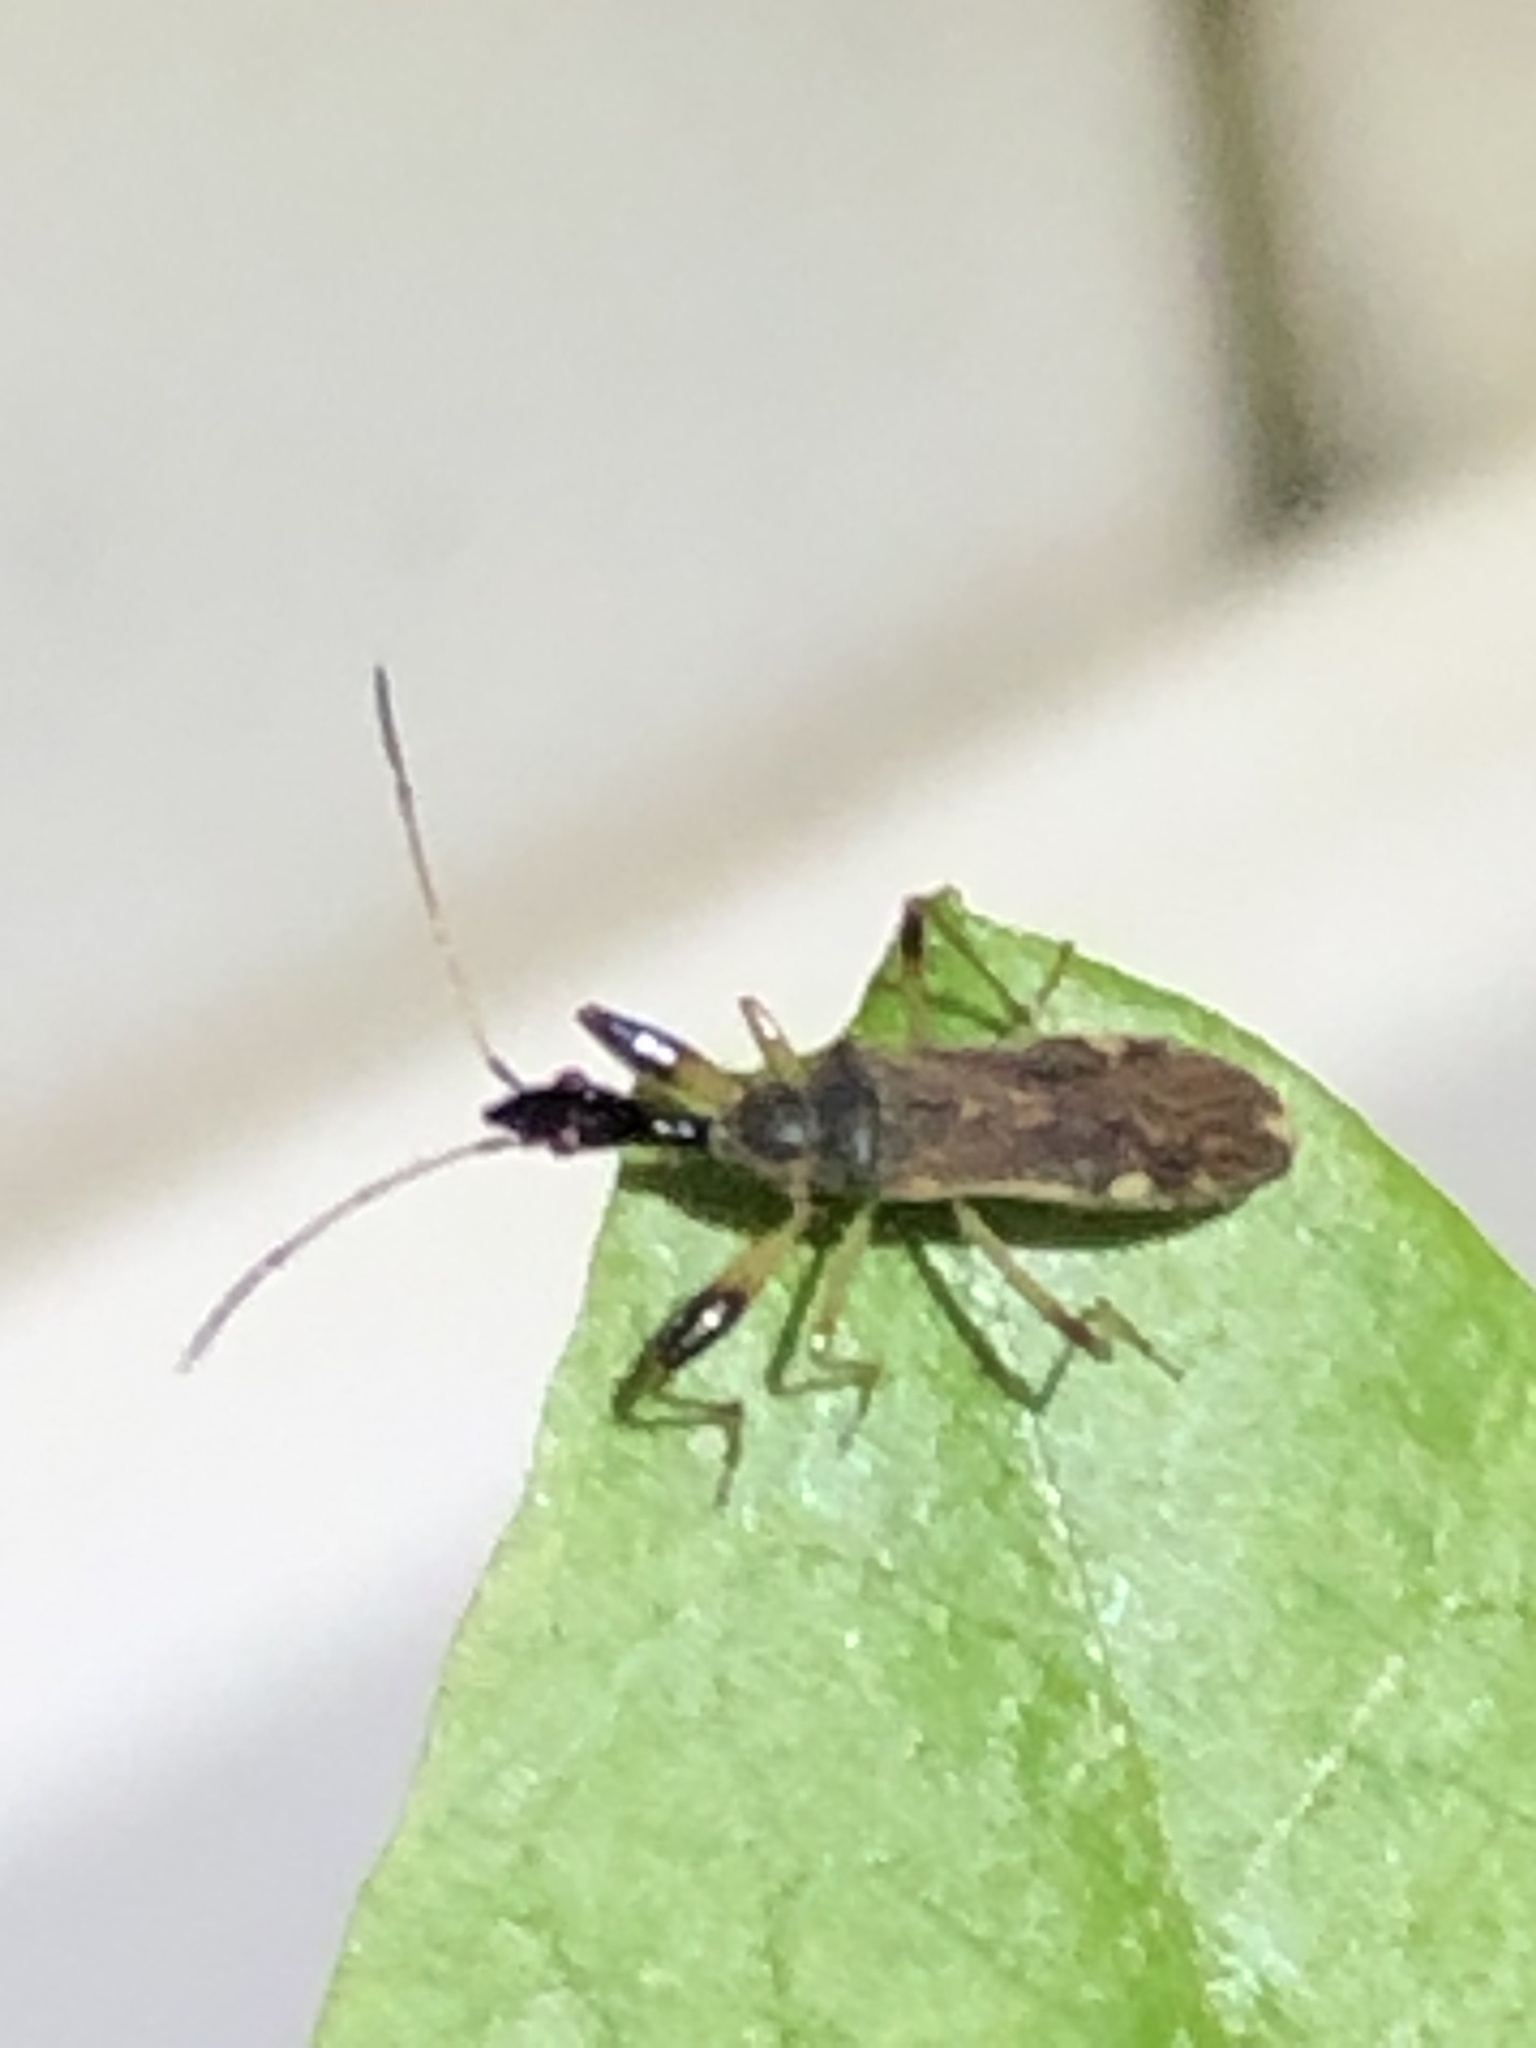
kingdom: Animalia
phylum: Arthropoda
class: Insecta
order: Hemiptera
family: Rhyparochromidae
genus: Myodocha
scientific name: Myodocha serripes
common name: Long-necked seed bug
